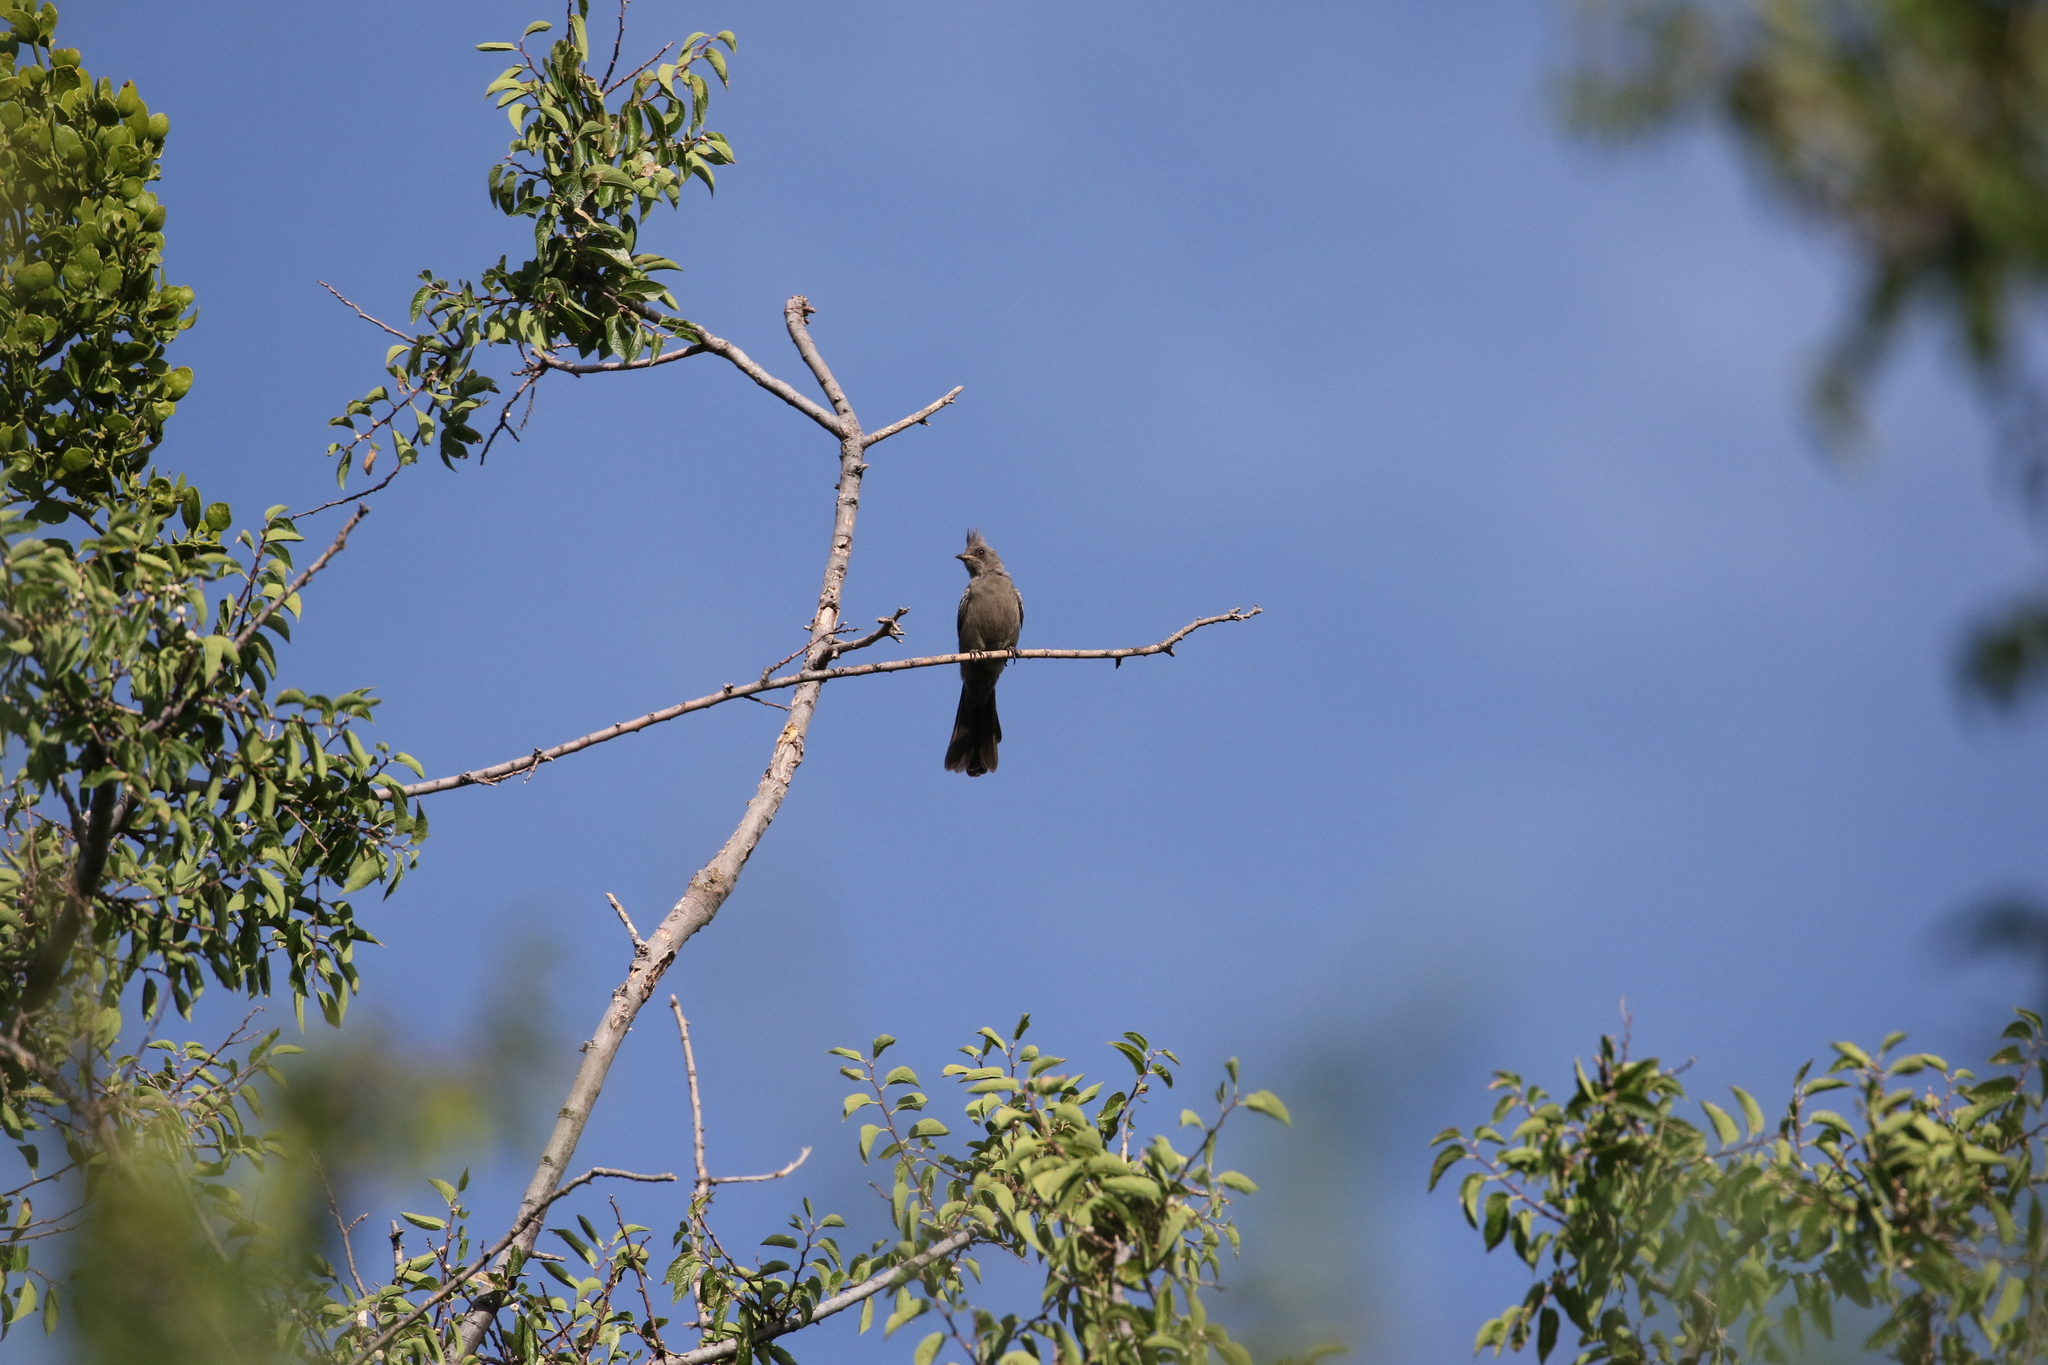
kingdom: Animalia
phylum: Chordata
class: Aves
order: Passeriformes
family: Ptilogonatidae
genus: Phainopepla
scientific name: Phainopepla nitens
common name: Phainopepla
